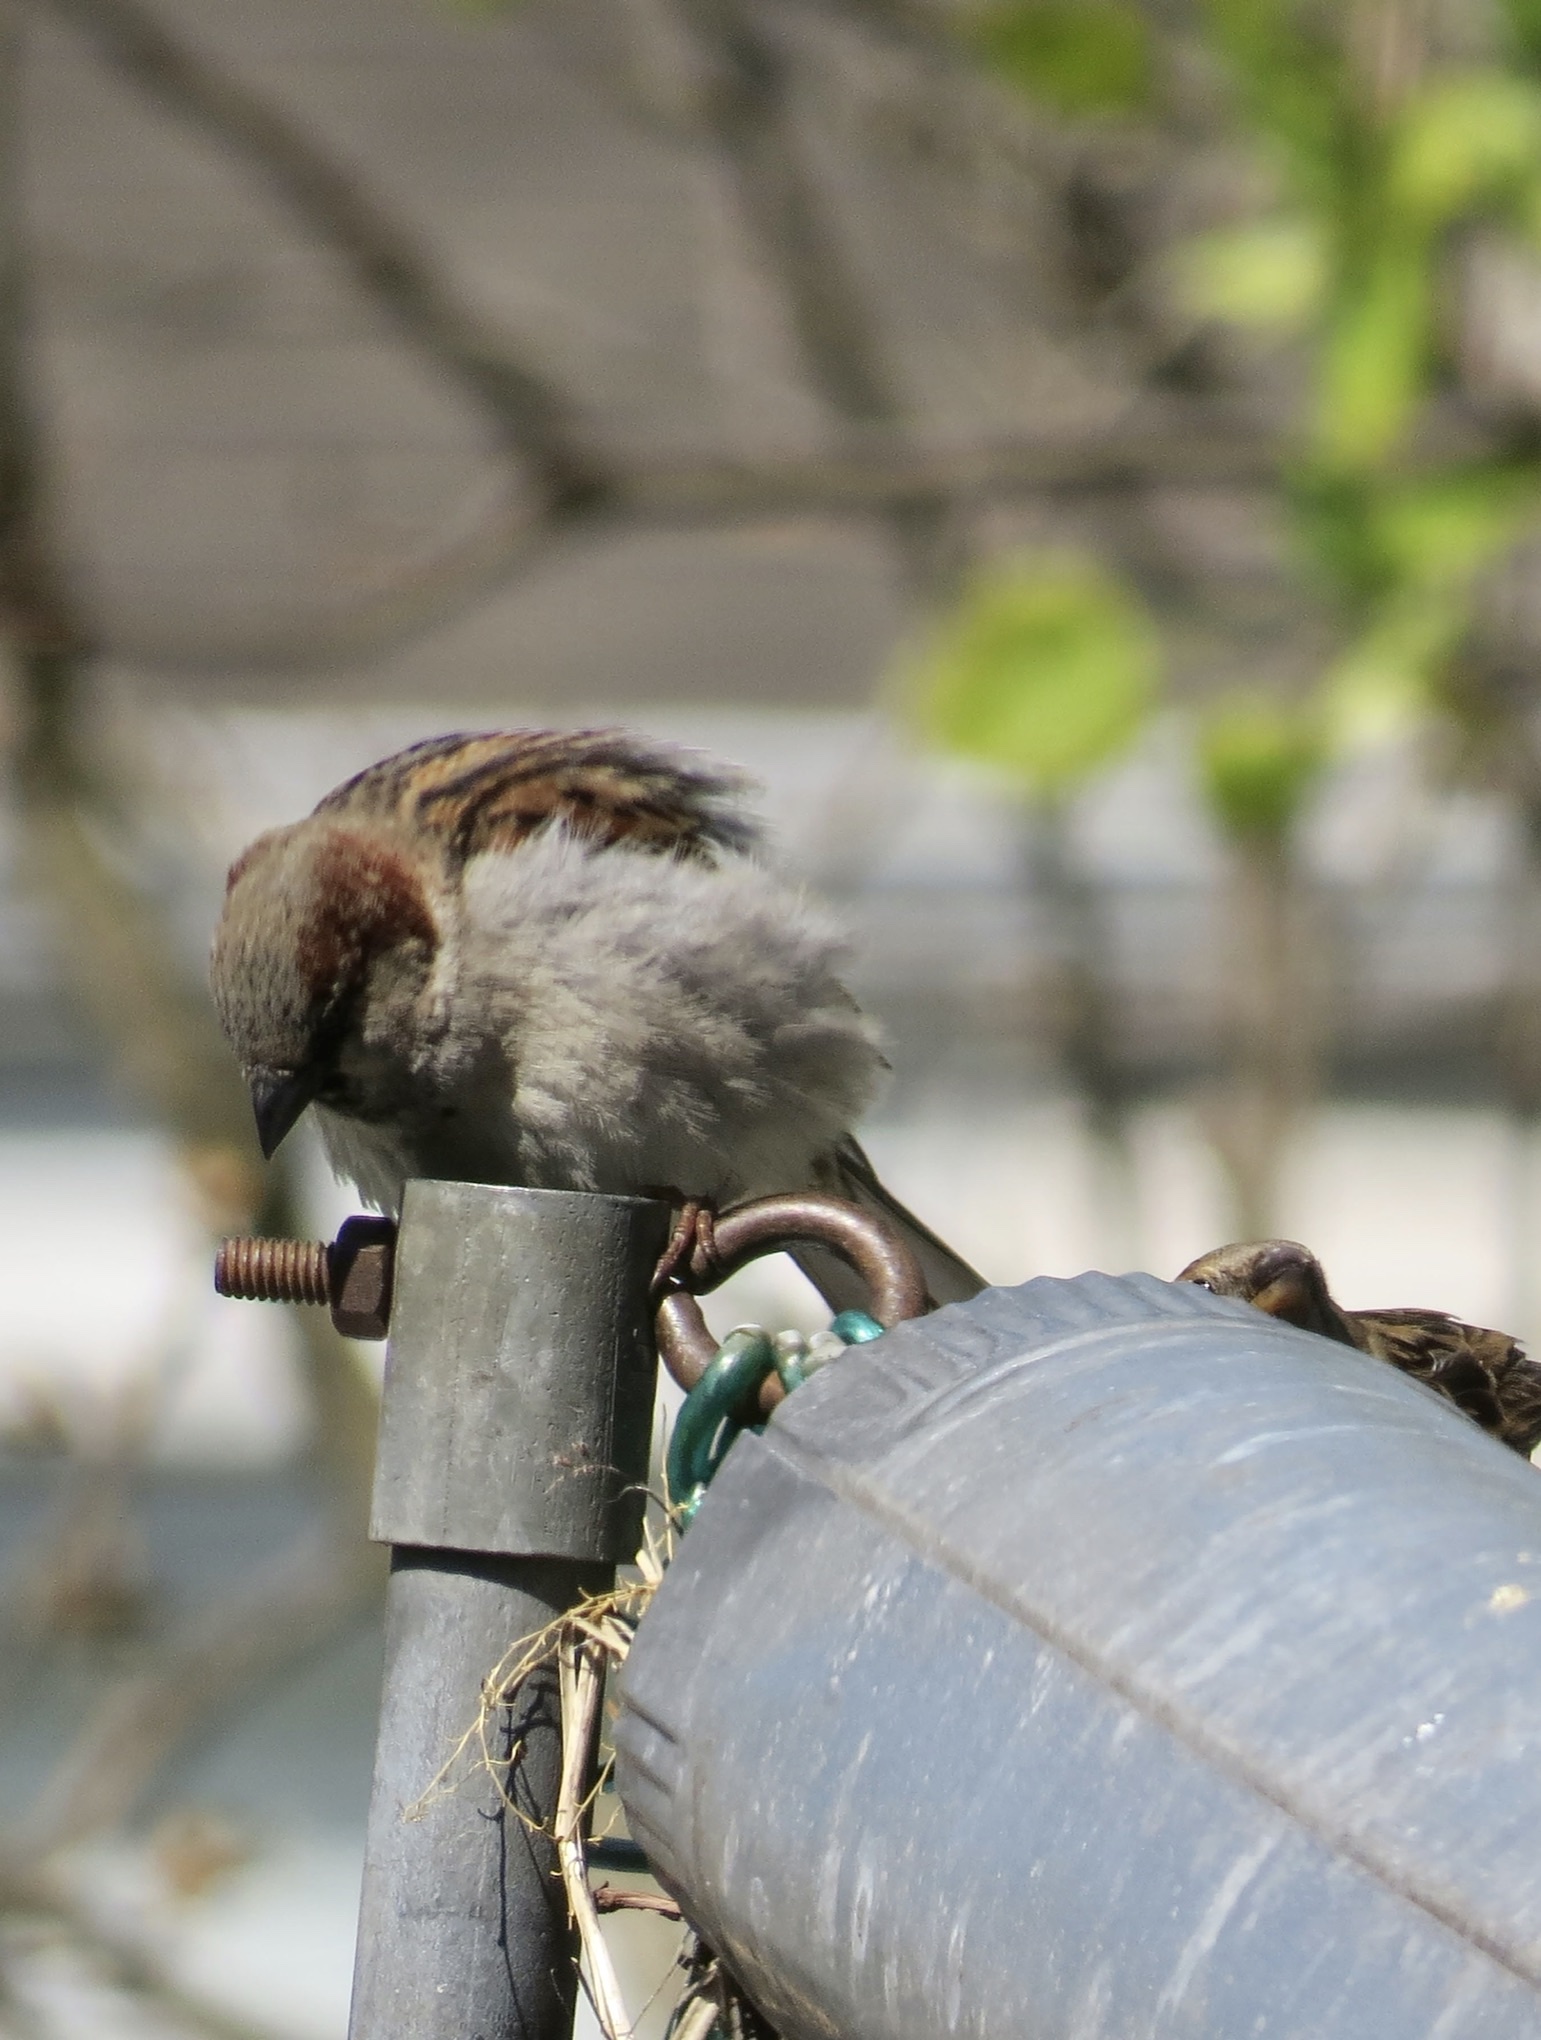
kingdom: Animalia
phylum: Chordata
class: Aves
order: Passeriformes
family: Passeridae
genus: Passer
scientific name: Passer domesticus
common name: House sparrow
